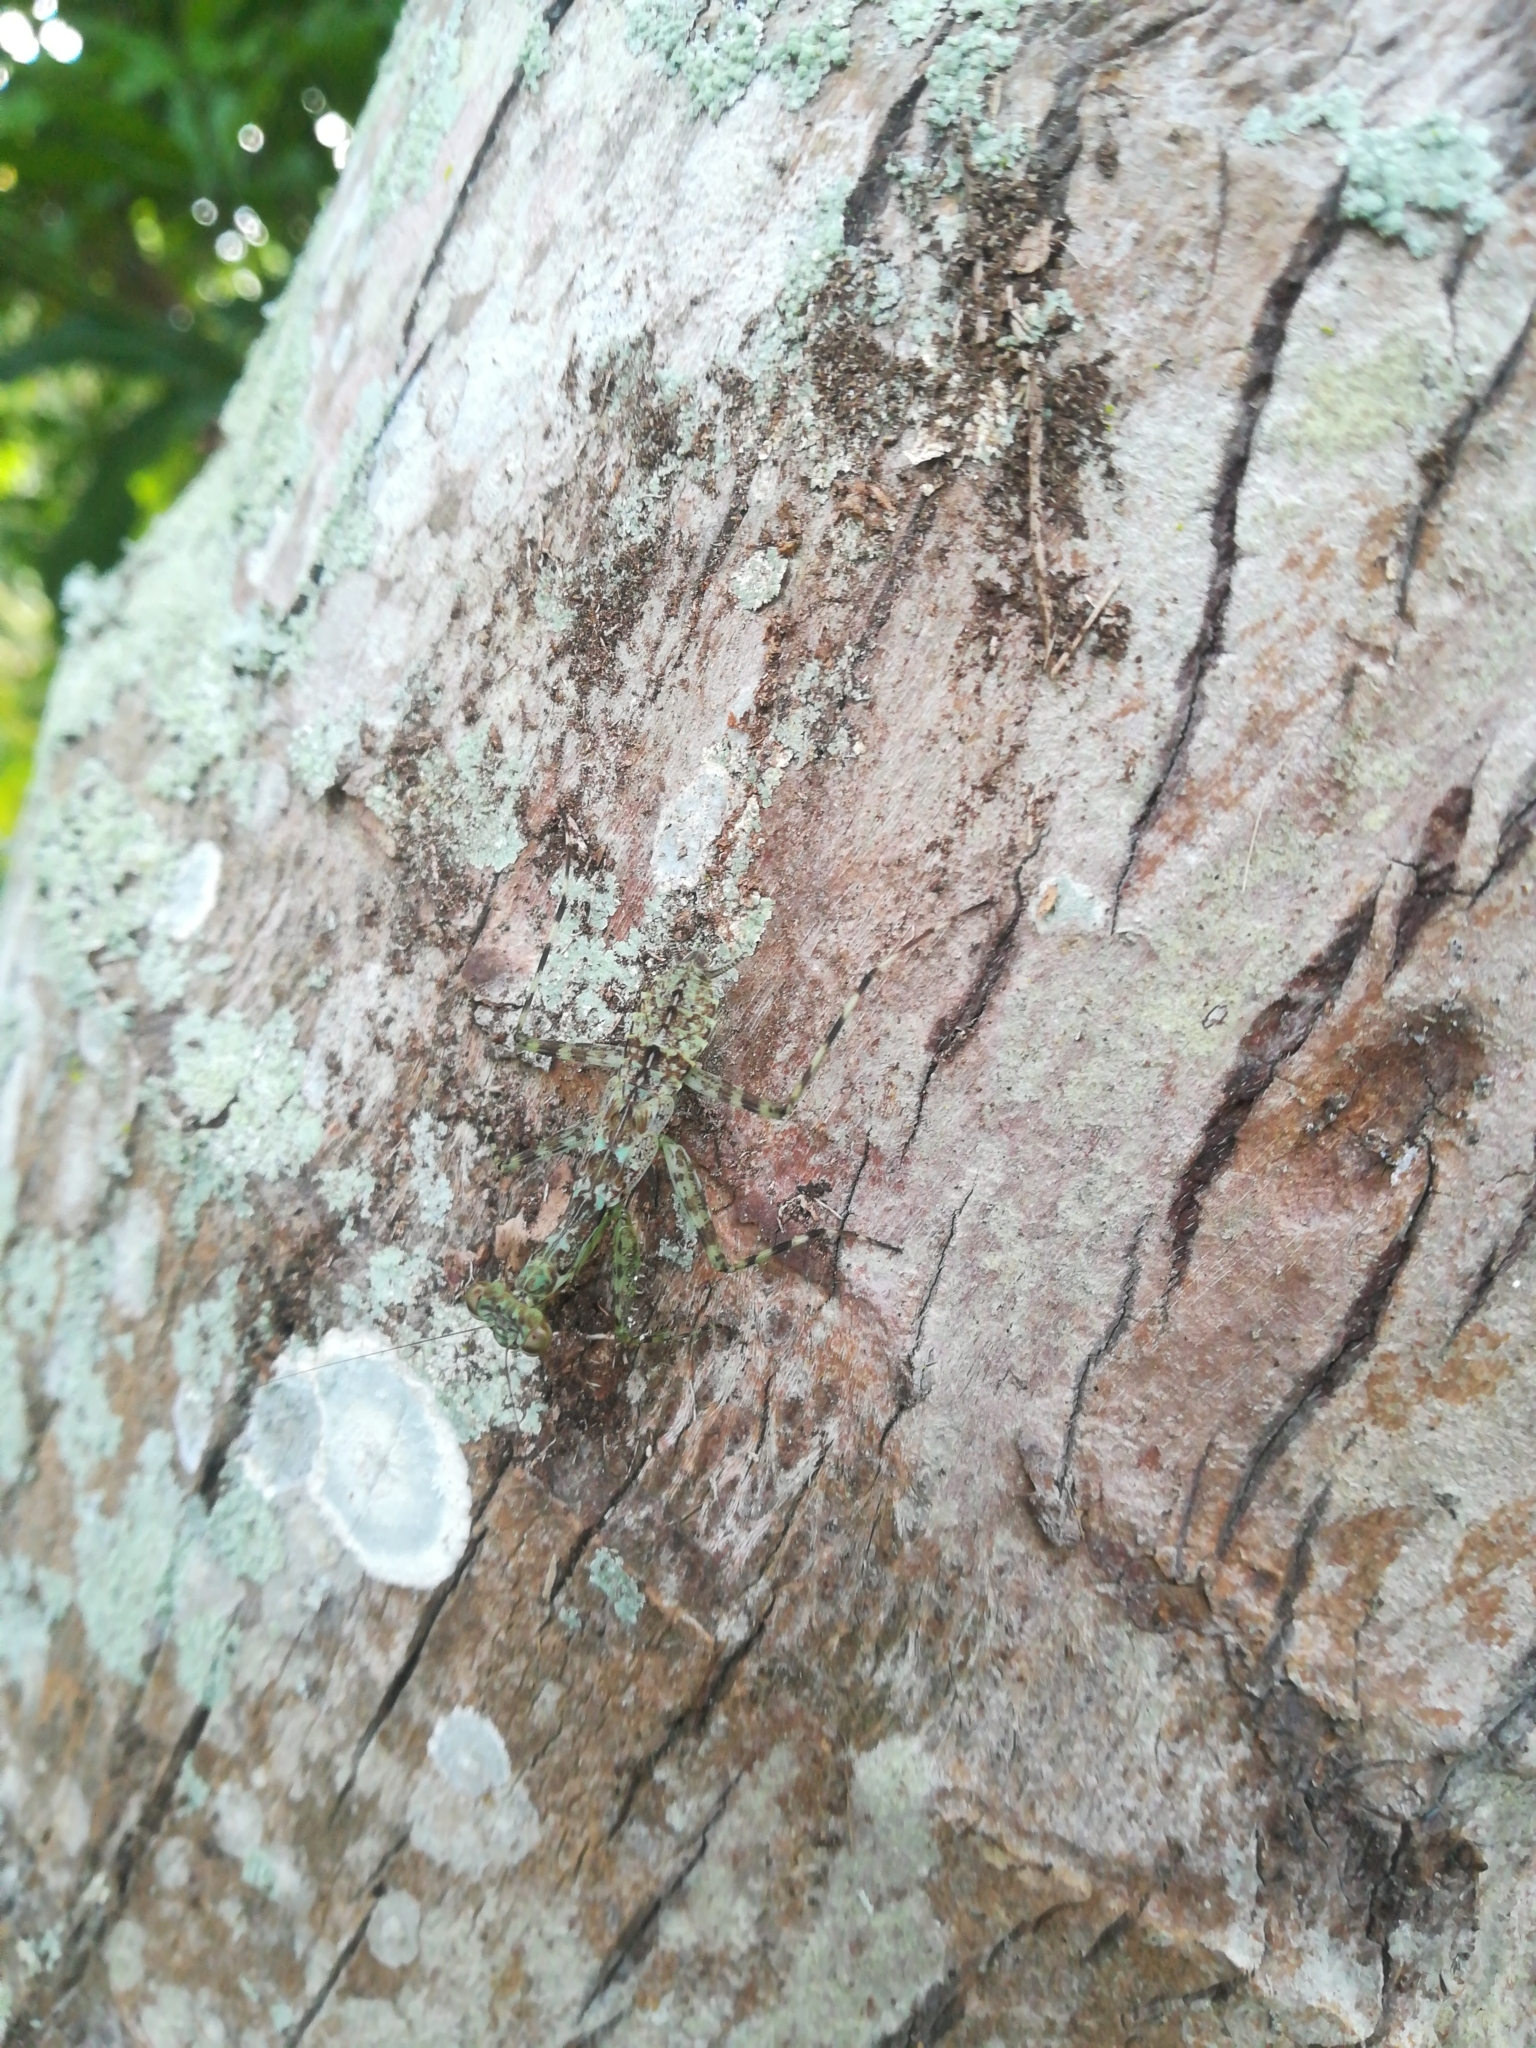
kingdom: Animalia
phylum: Arthropoda
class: Insecta
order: Mantodea
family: Liturgusidae
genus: Liturgusa
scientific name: Liturgusa trinidadensis
